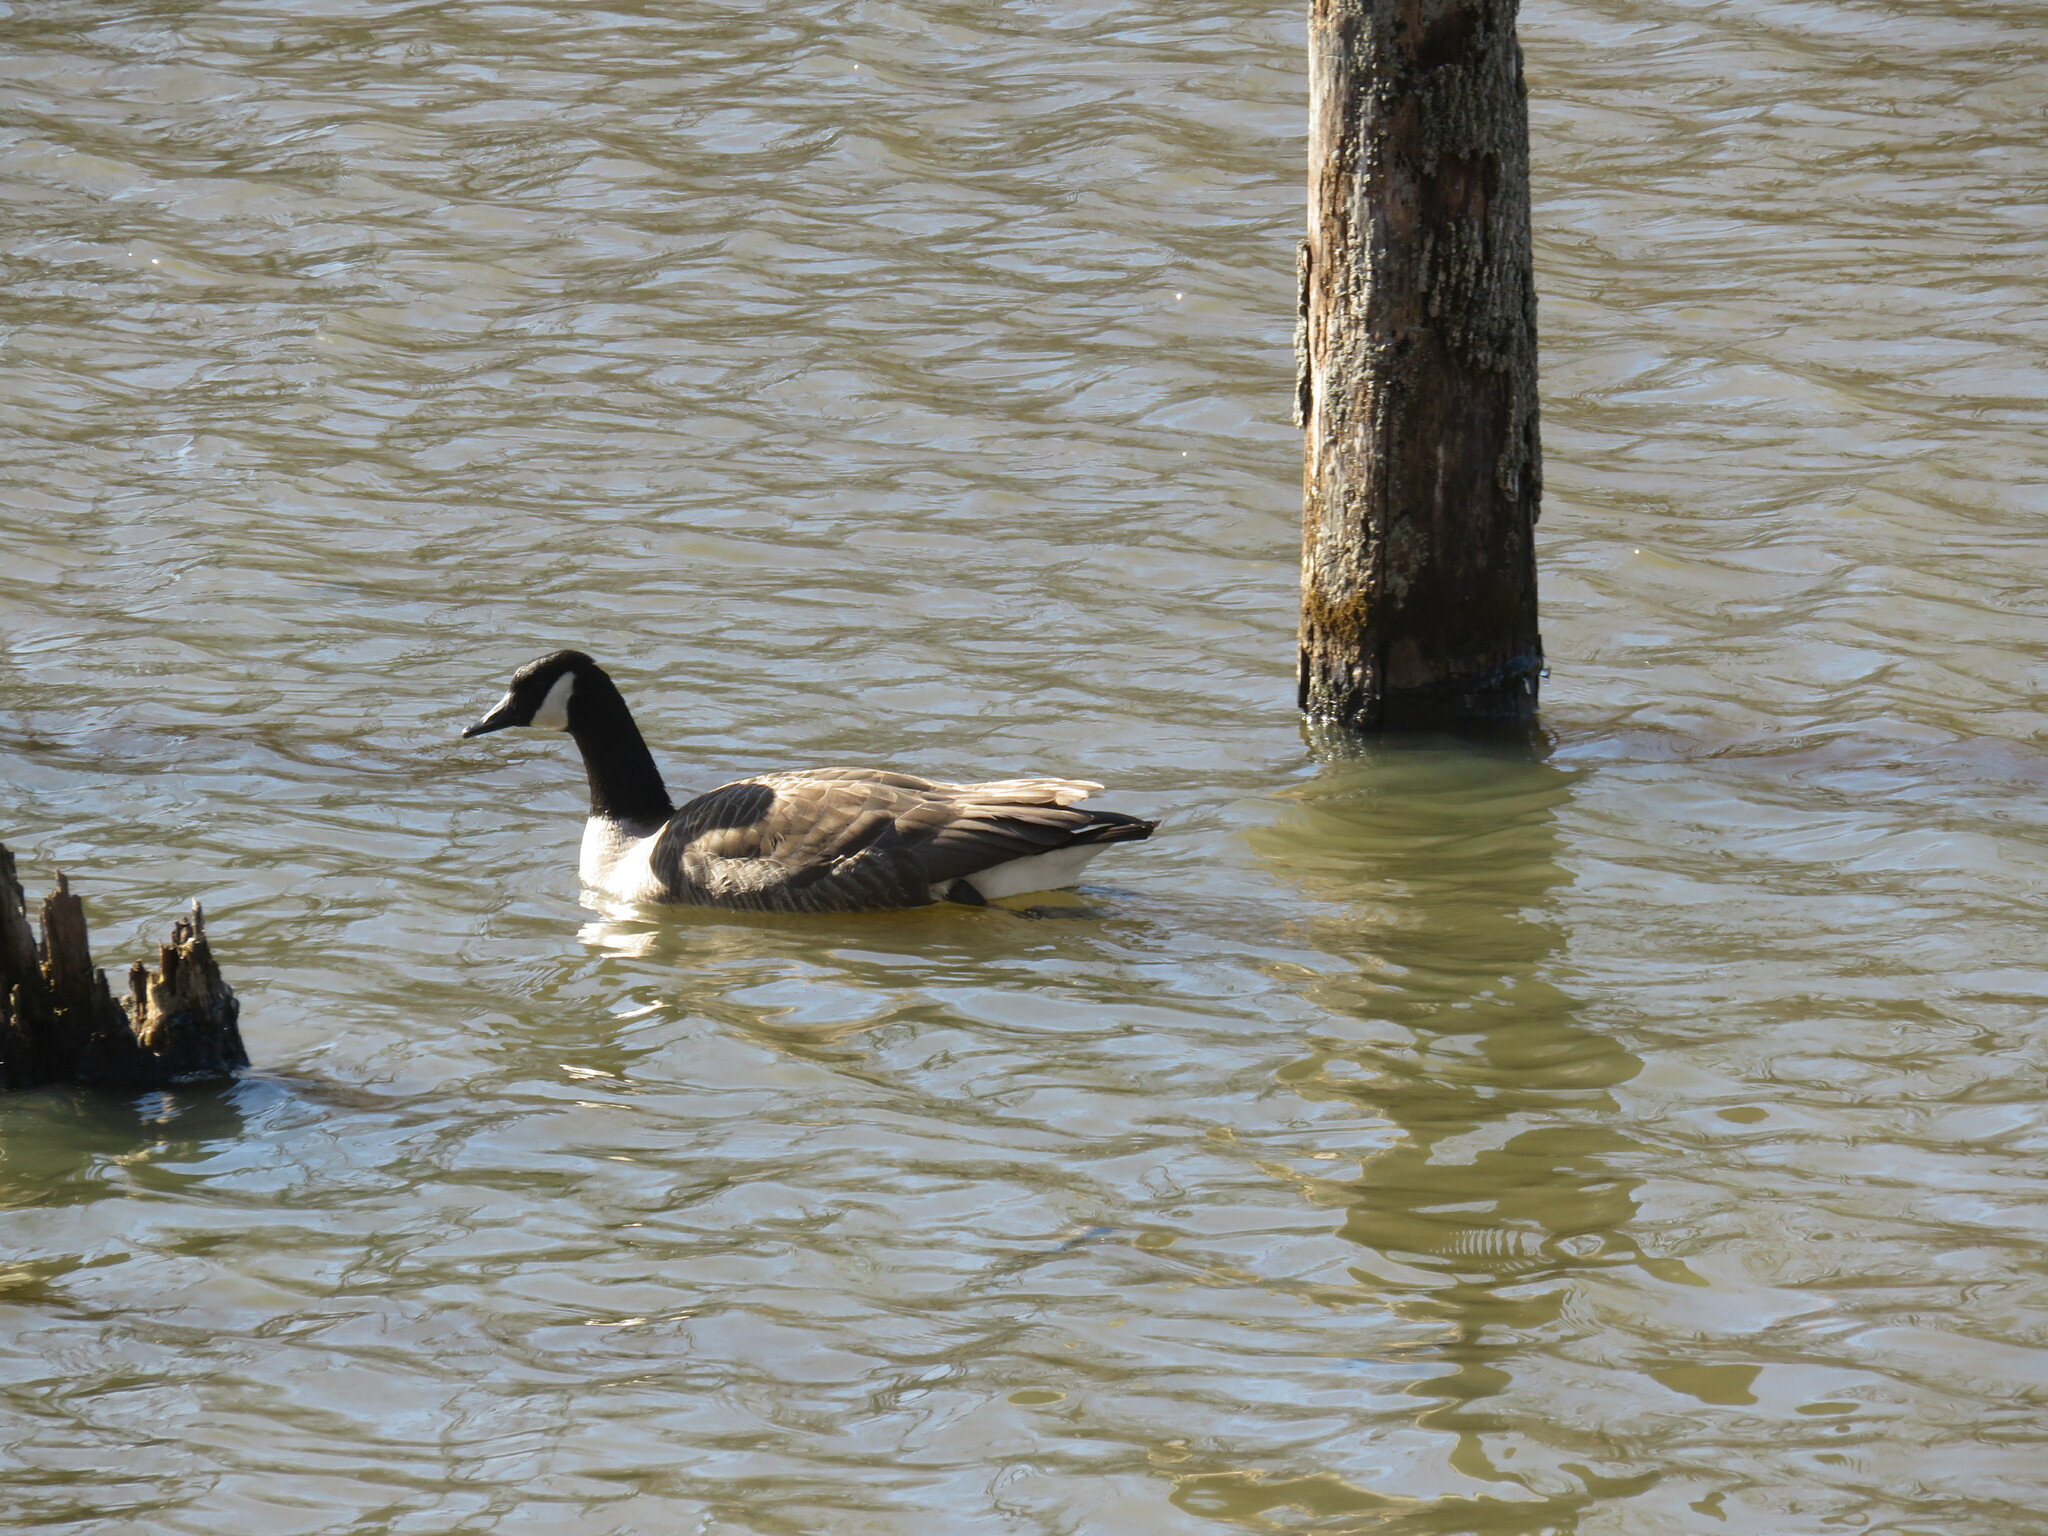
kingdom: Animalia
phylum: Chordata
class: Aves
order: Anseriformes
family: Anatidae
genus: Branta
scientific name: Branta canadensis
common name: Canada goose
